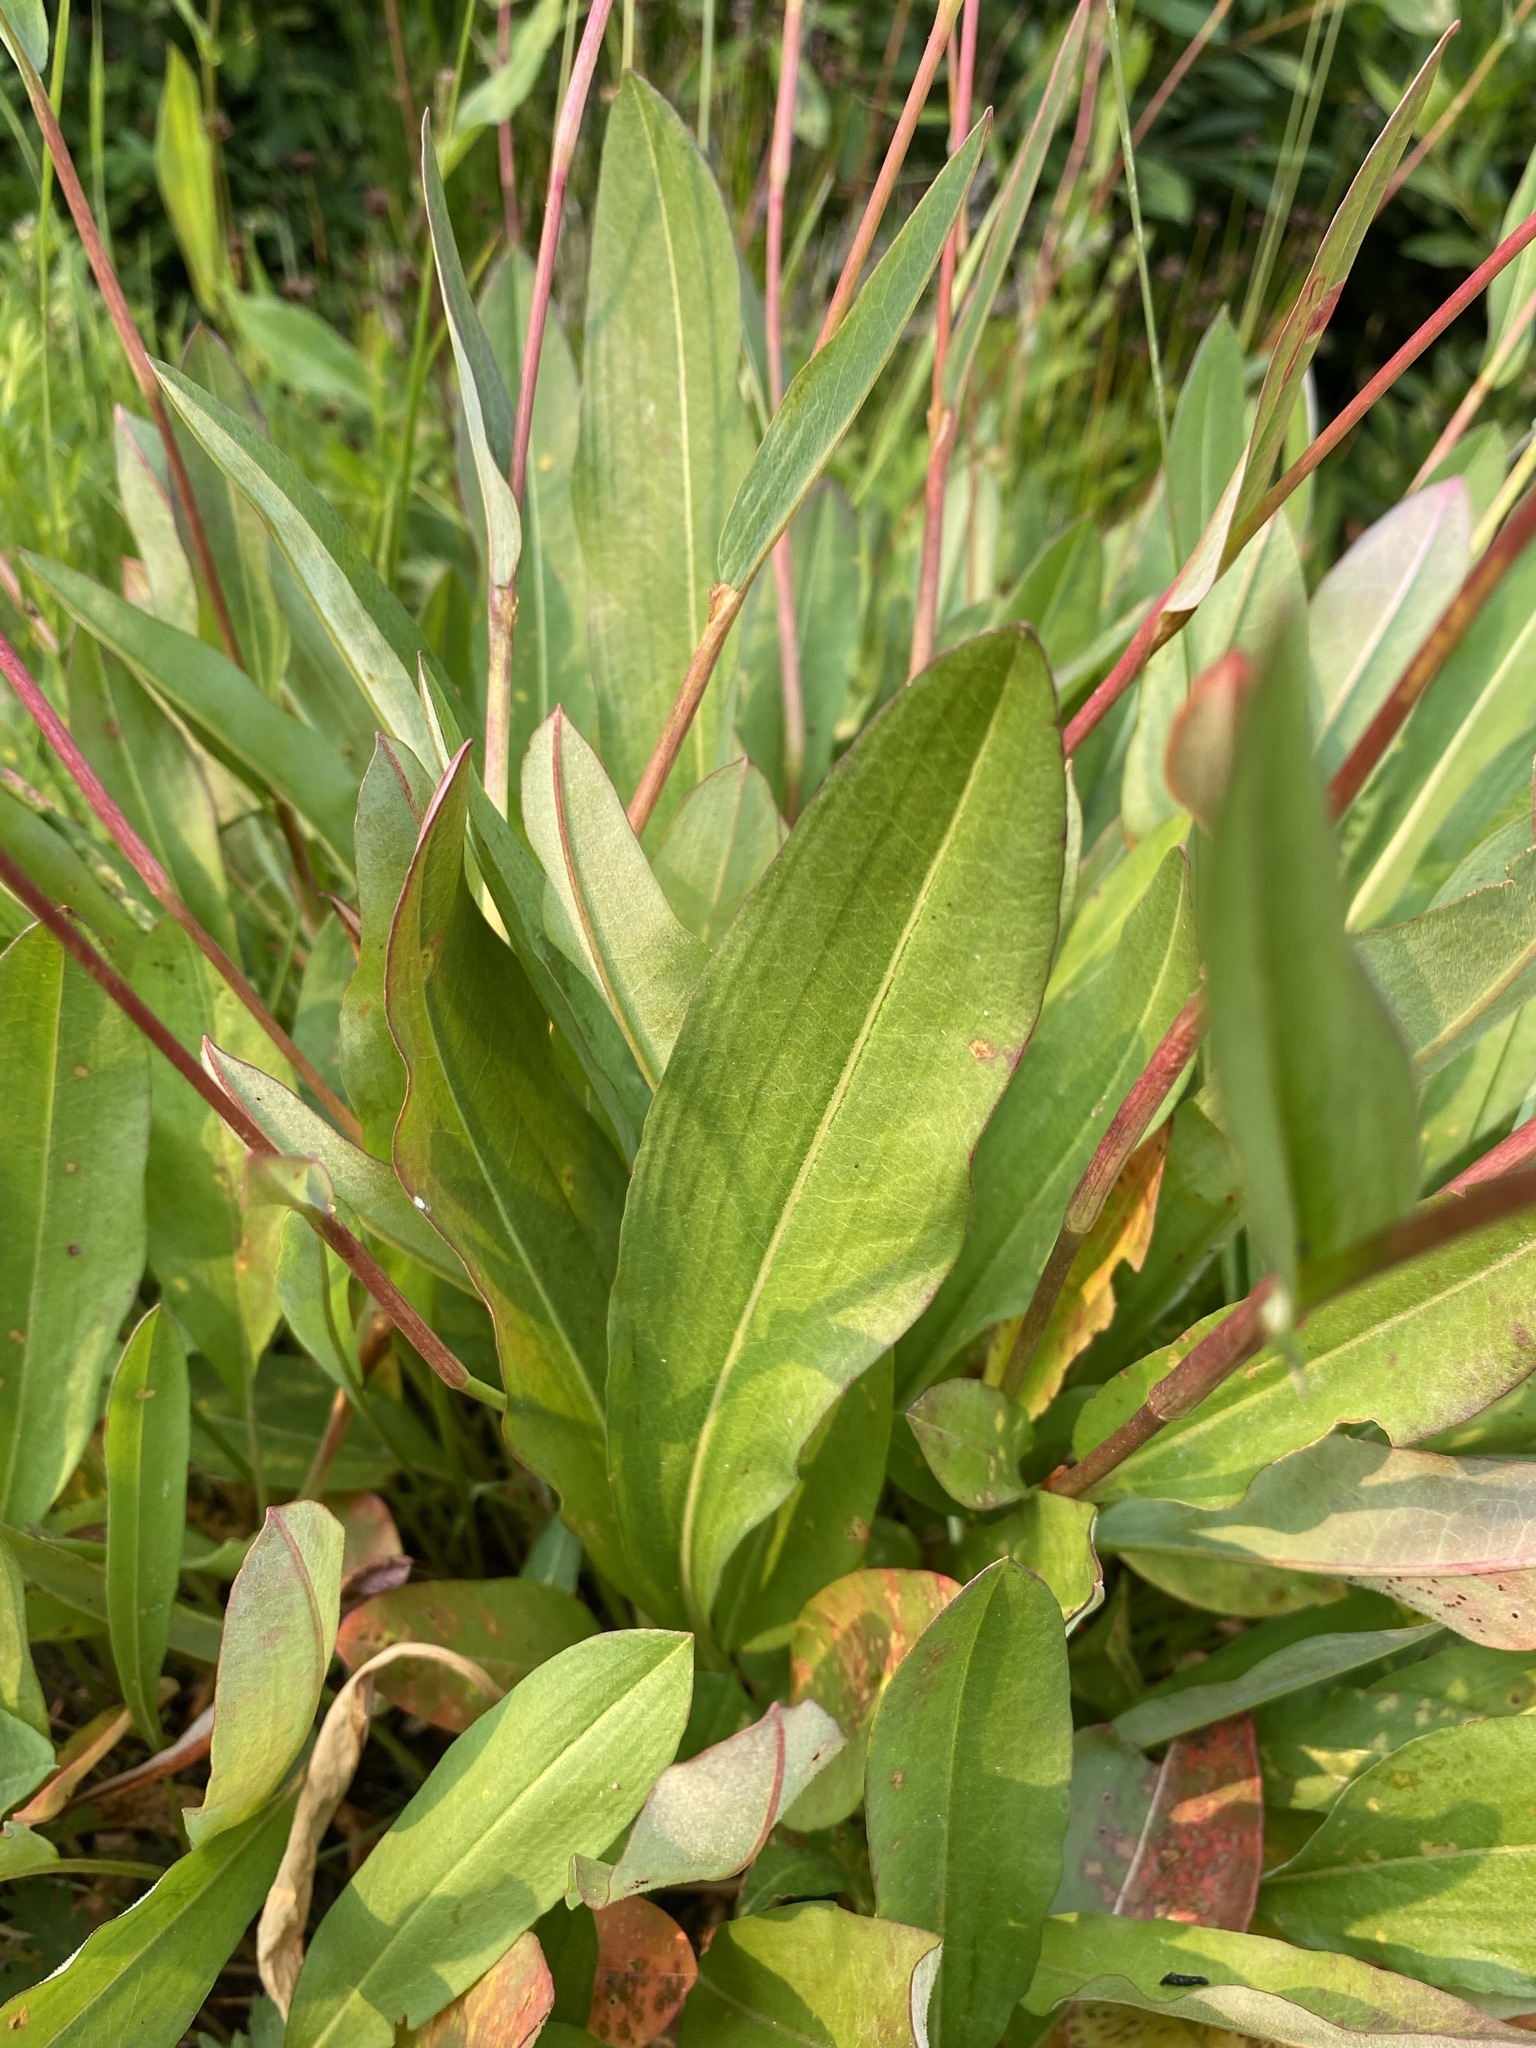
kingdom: Plantae
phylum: Tracheophyta
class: Magnoliopsida
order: Caryophyllales
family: Polygonaceae
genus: Bistorta
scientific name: Bistorta bistortoides
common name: American bistort
